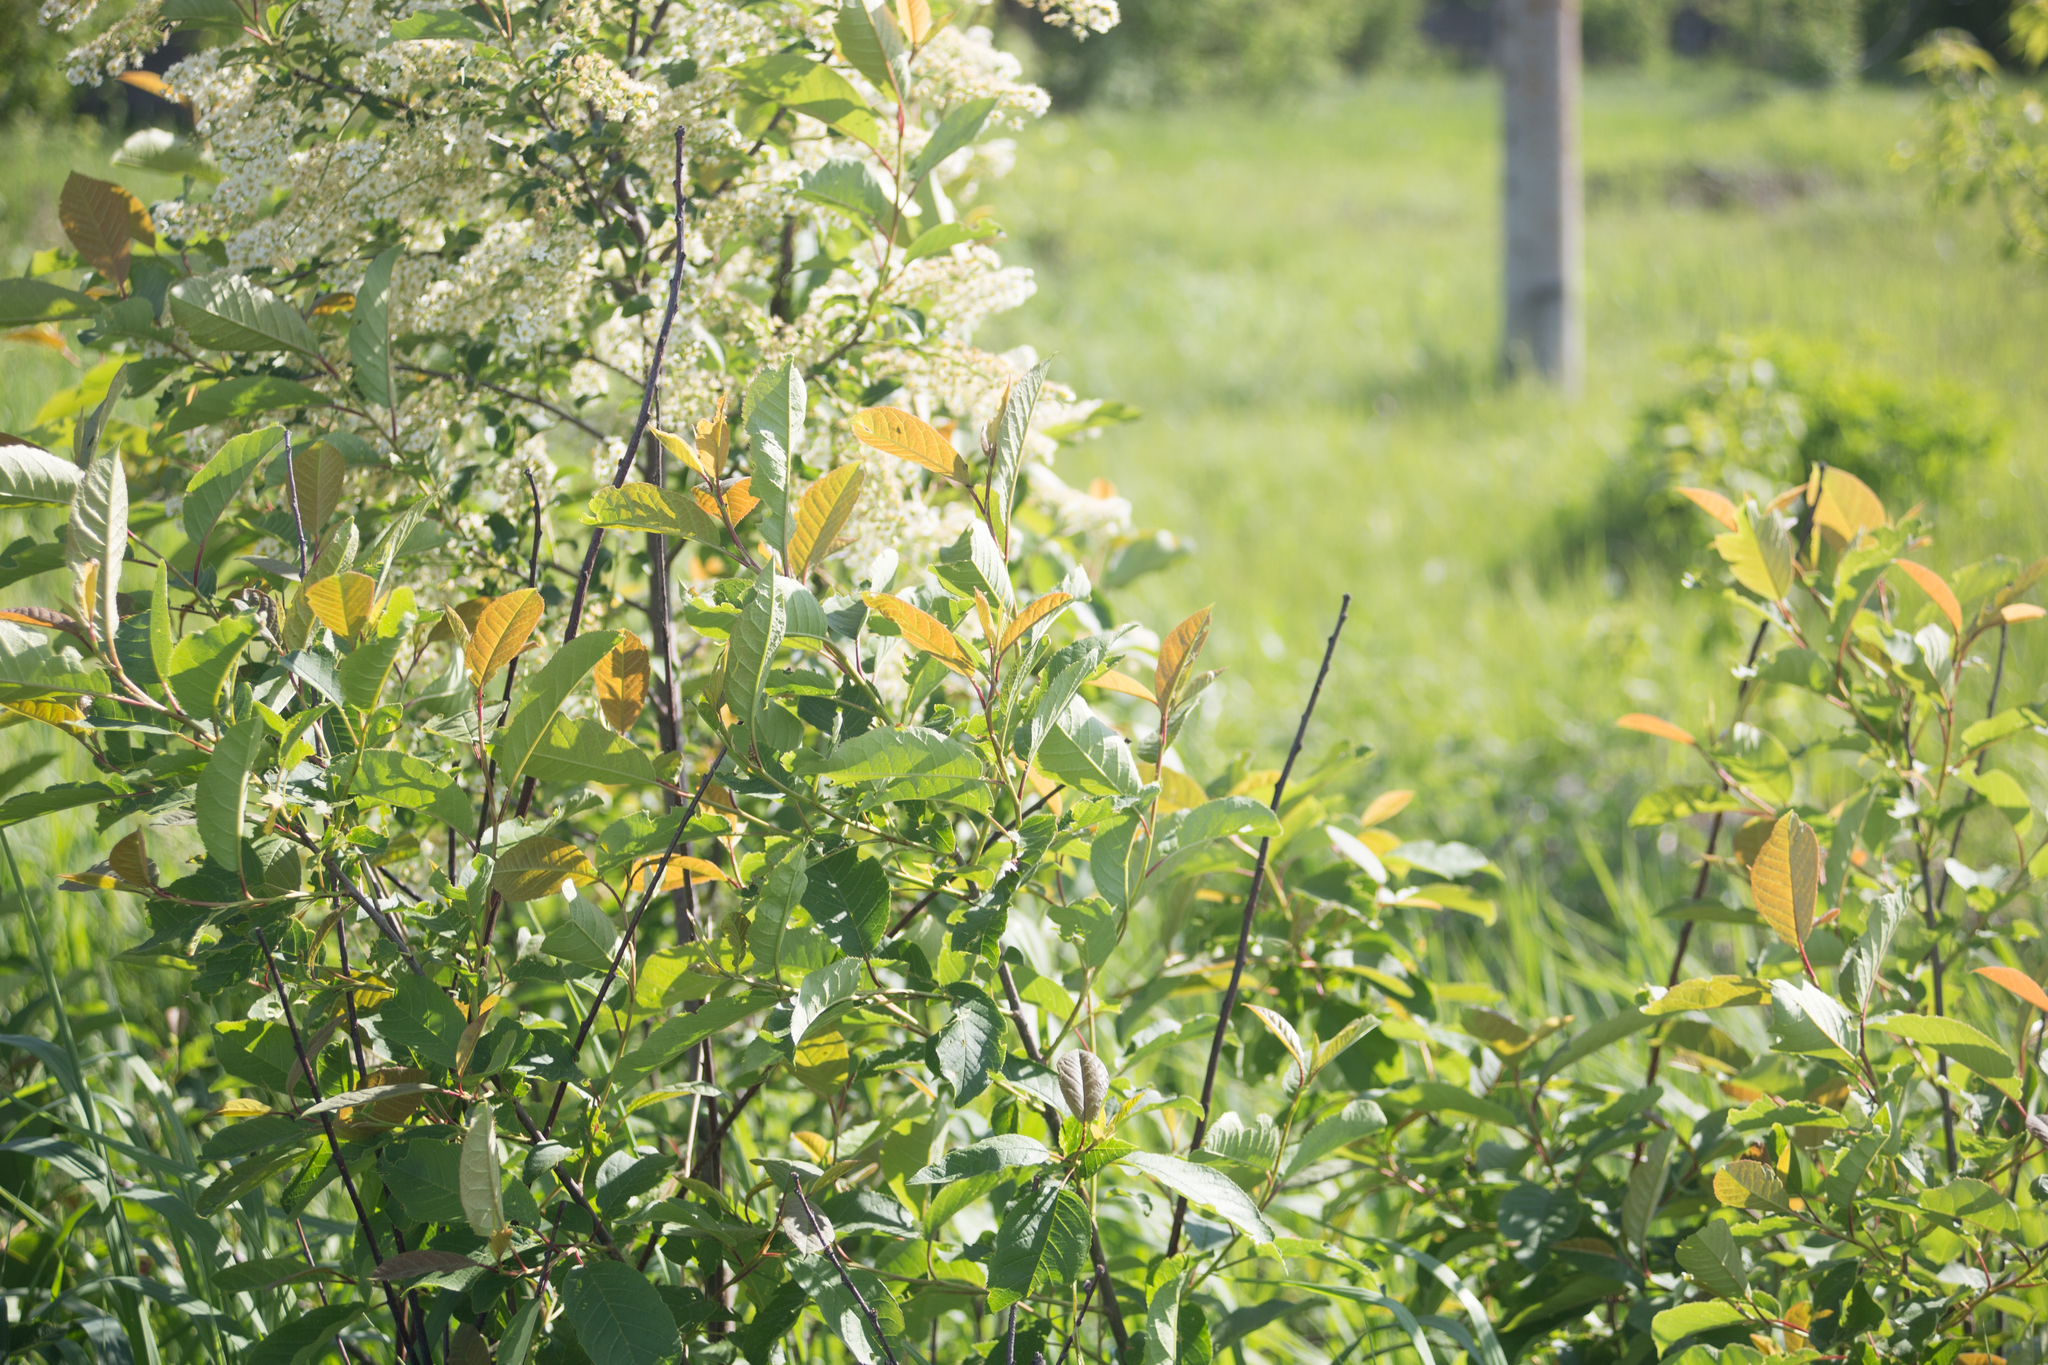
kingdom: Plantae
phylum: Tracheophyta
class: Magnoliopsida
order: Rosales
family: Rosaceae
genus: Prunus
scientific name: Prunus padus
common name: Bird cherry
